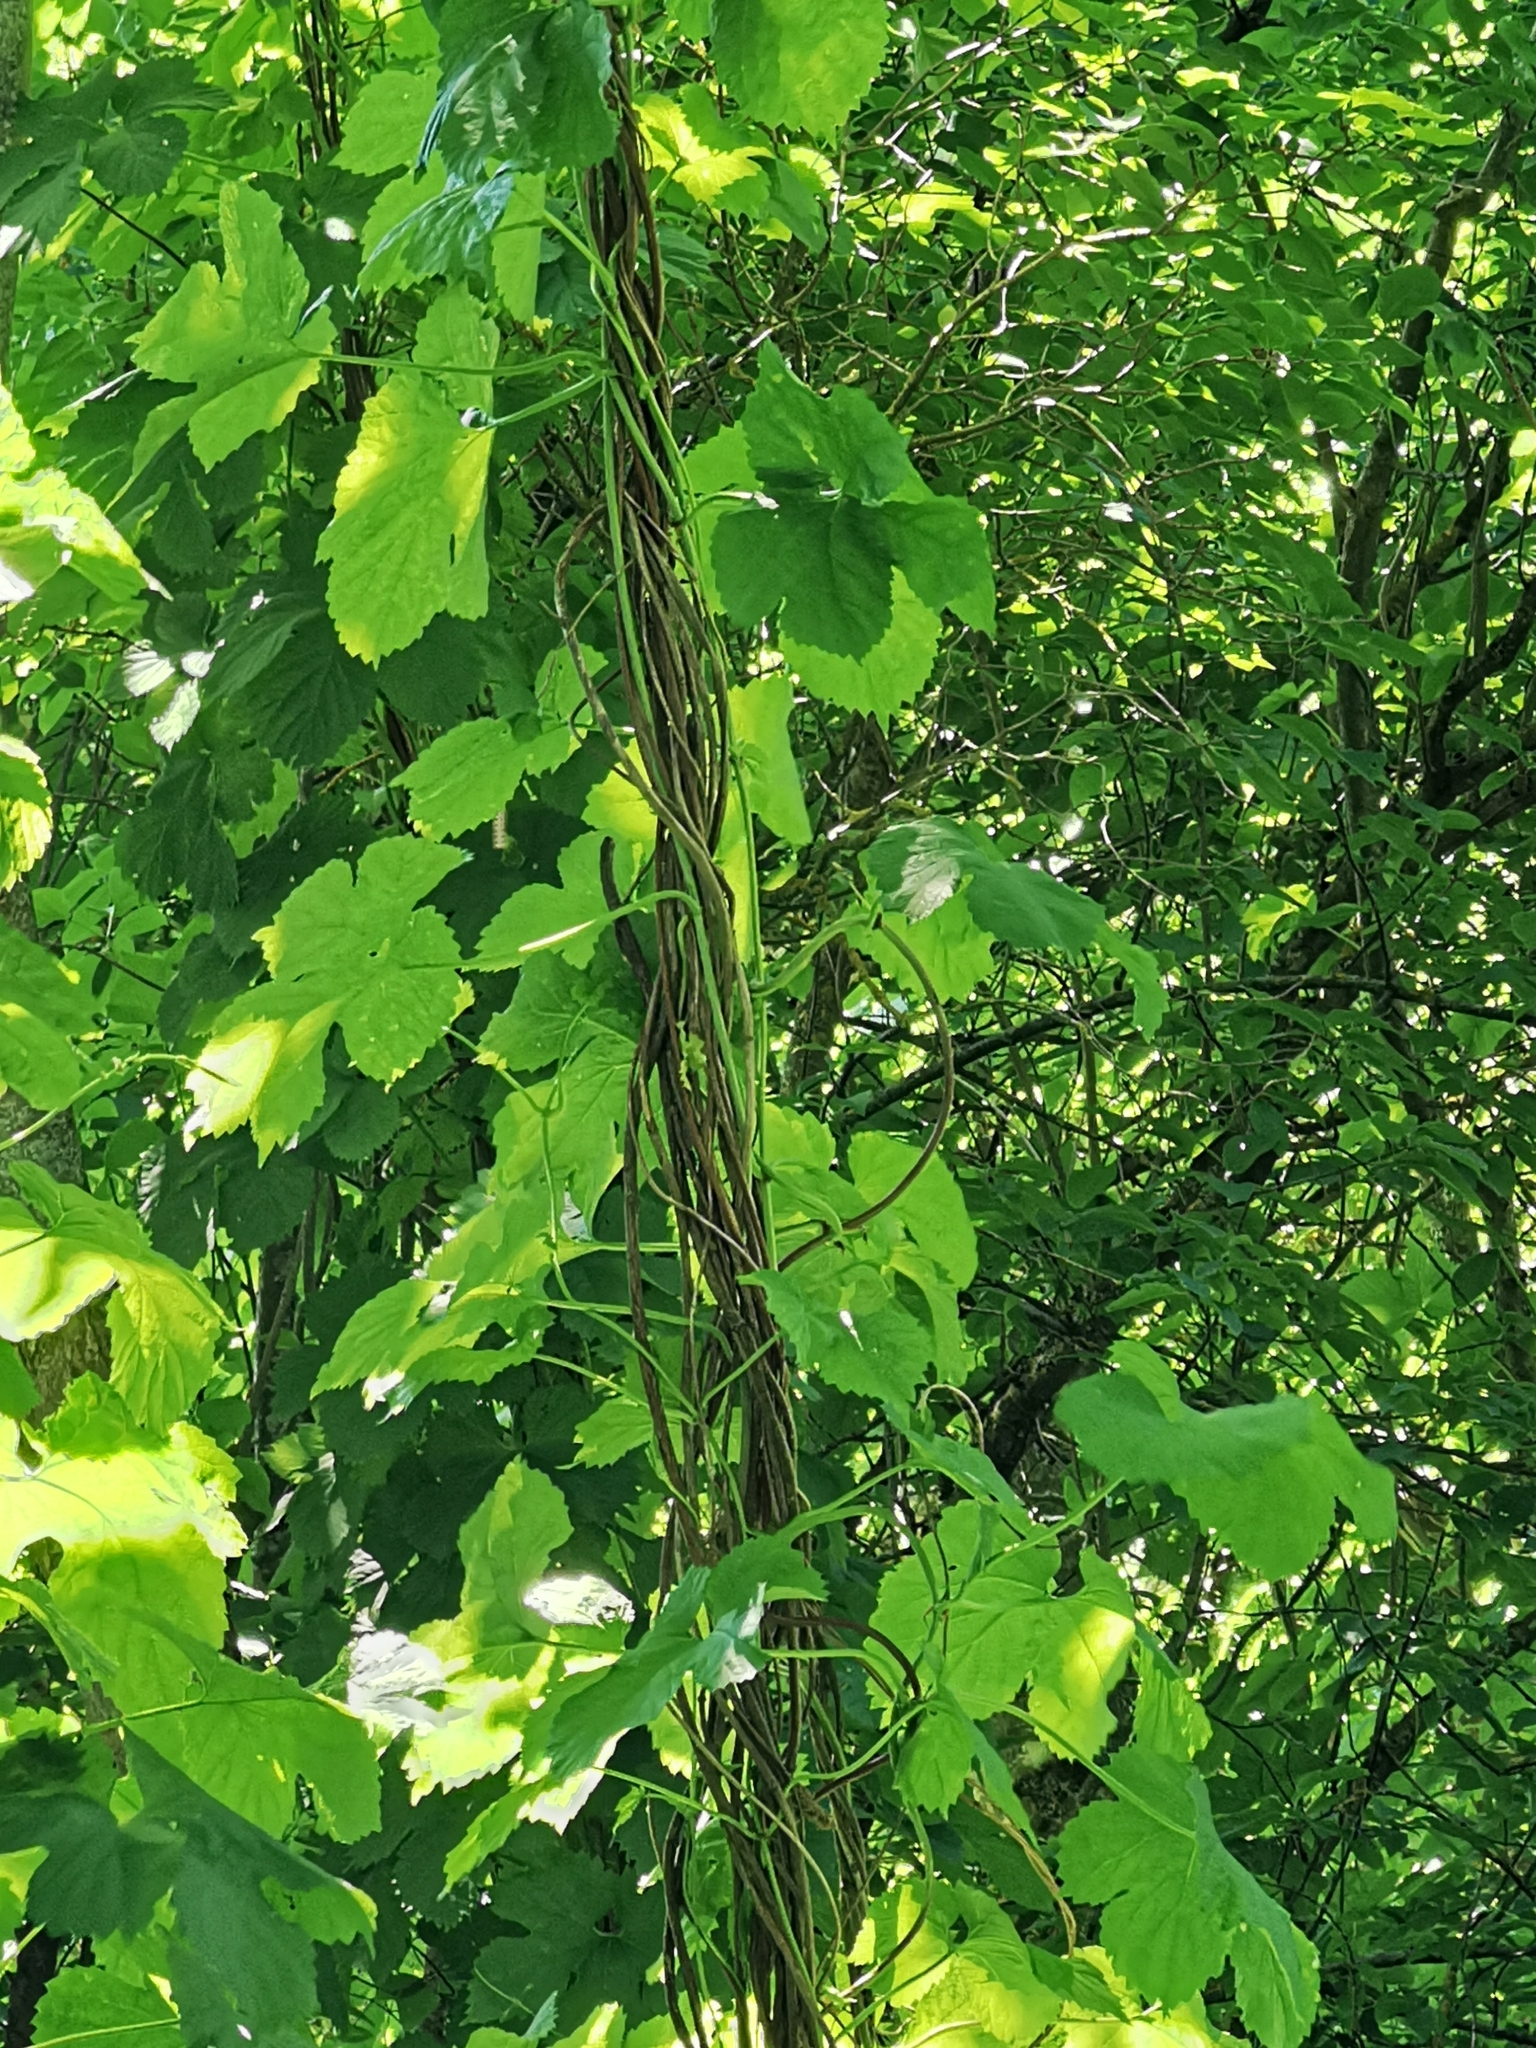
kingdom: Plantae
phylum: Tracheophyta
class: Magnoliopsida
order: Rosales
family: Cannabaceae
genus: Humulus
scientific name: Humulus lupulus
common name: Hop
